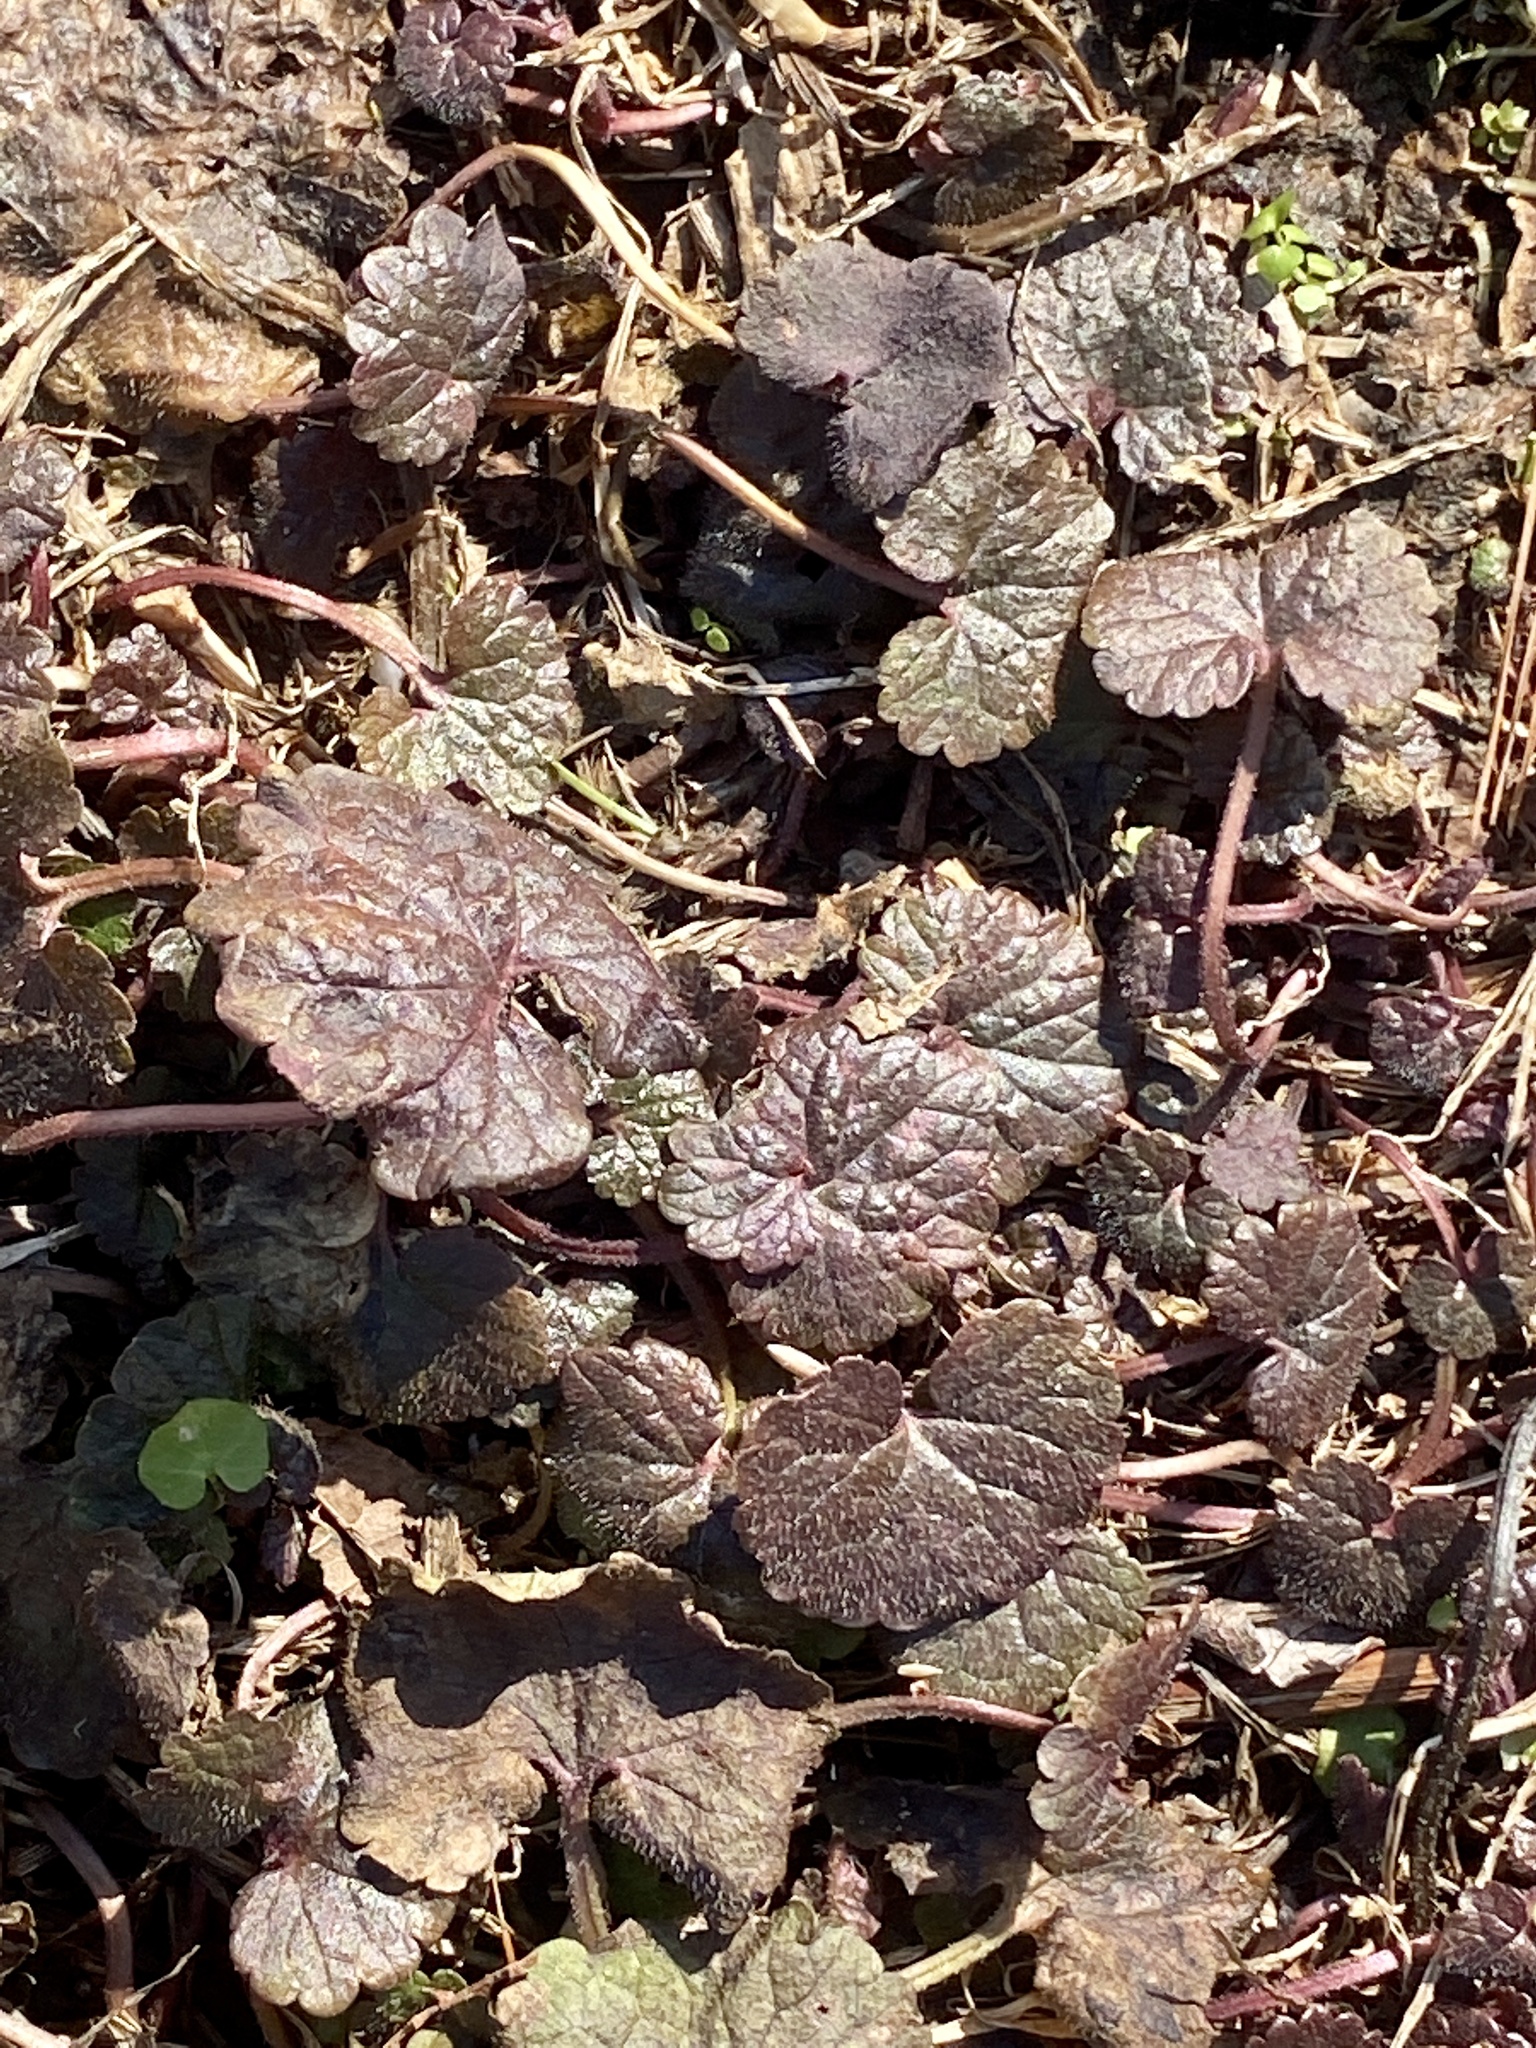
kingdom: Plantae
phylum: Tracheophyta
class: Magnoliopsida
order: Lamiales
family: Lamiaceae
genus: Glechoma
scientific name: Glechoma hederacea
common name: Ground ivy
